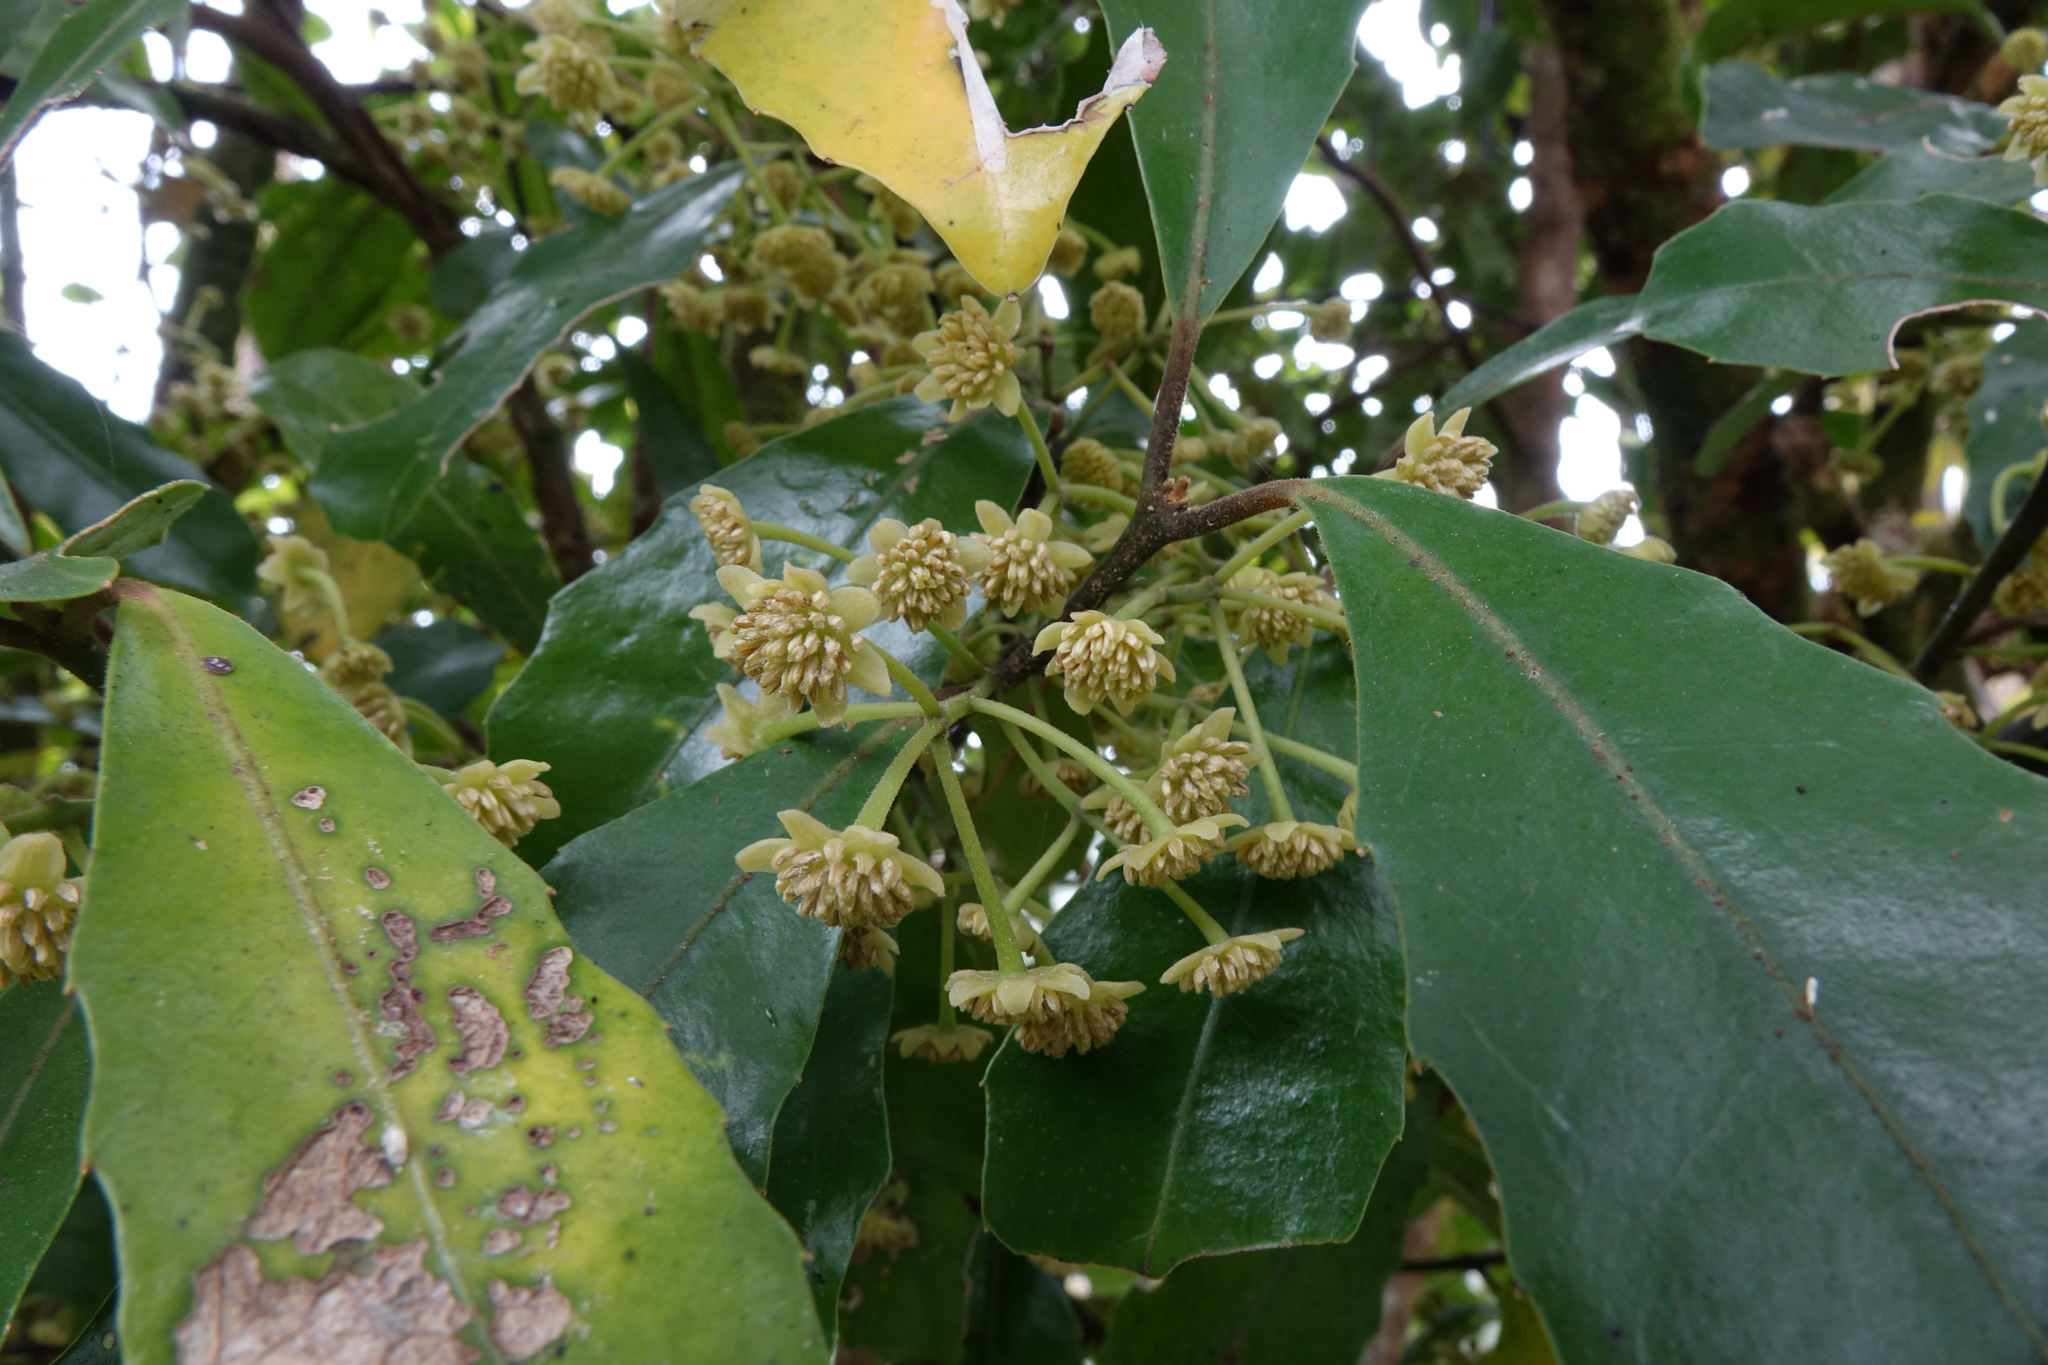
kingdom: Plantae
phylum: Tracheophyta
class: Magnoliopsida
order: Laurales
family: Monimiaceae
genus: Hedycarya
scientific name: Hedycarya arborea
